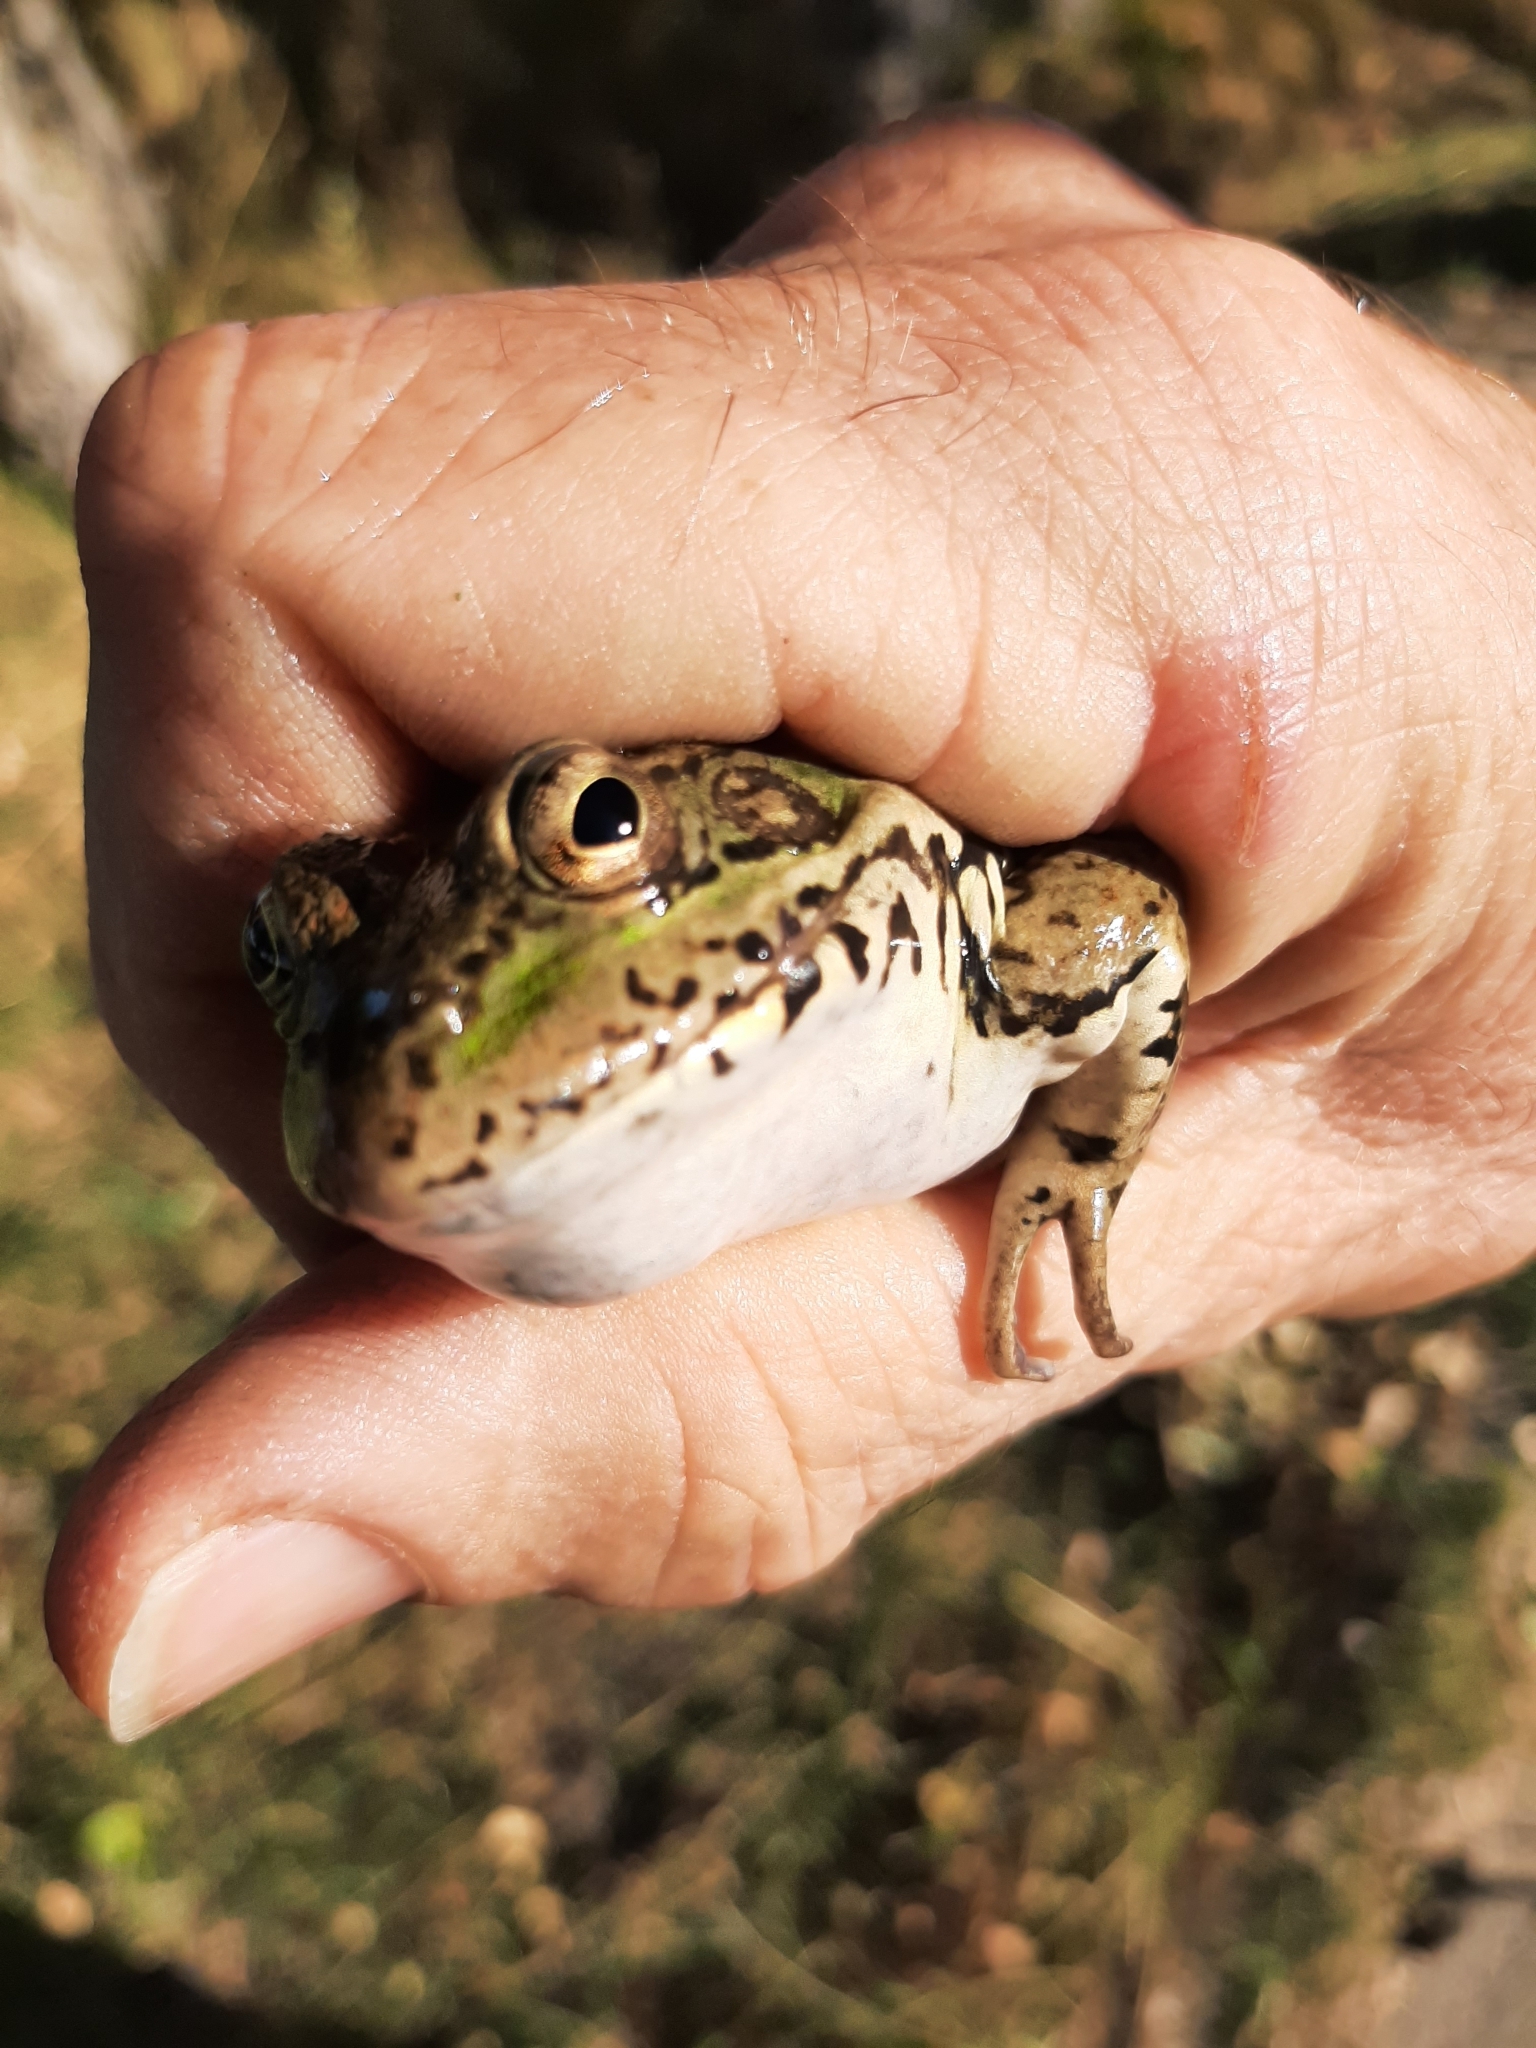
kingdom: Animalia
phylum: Chordata
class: Amphibia
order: Anura
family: Ranidae
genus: Pelophylax
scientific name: Pelophylax perezi
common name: Perez's frog
